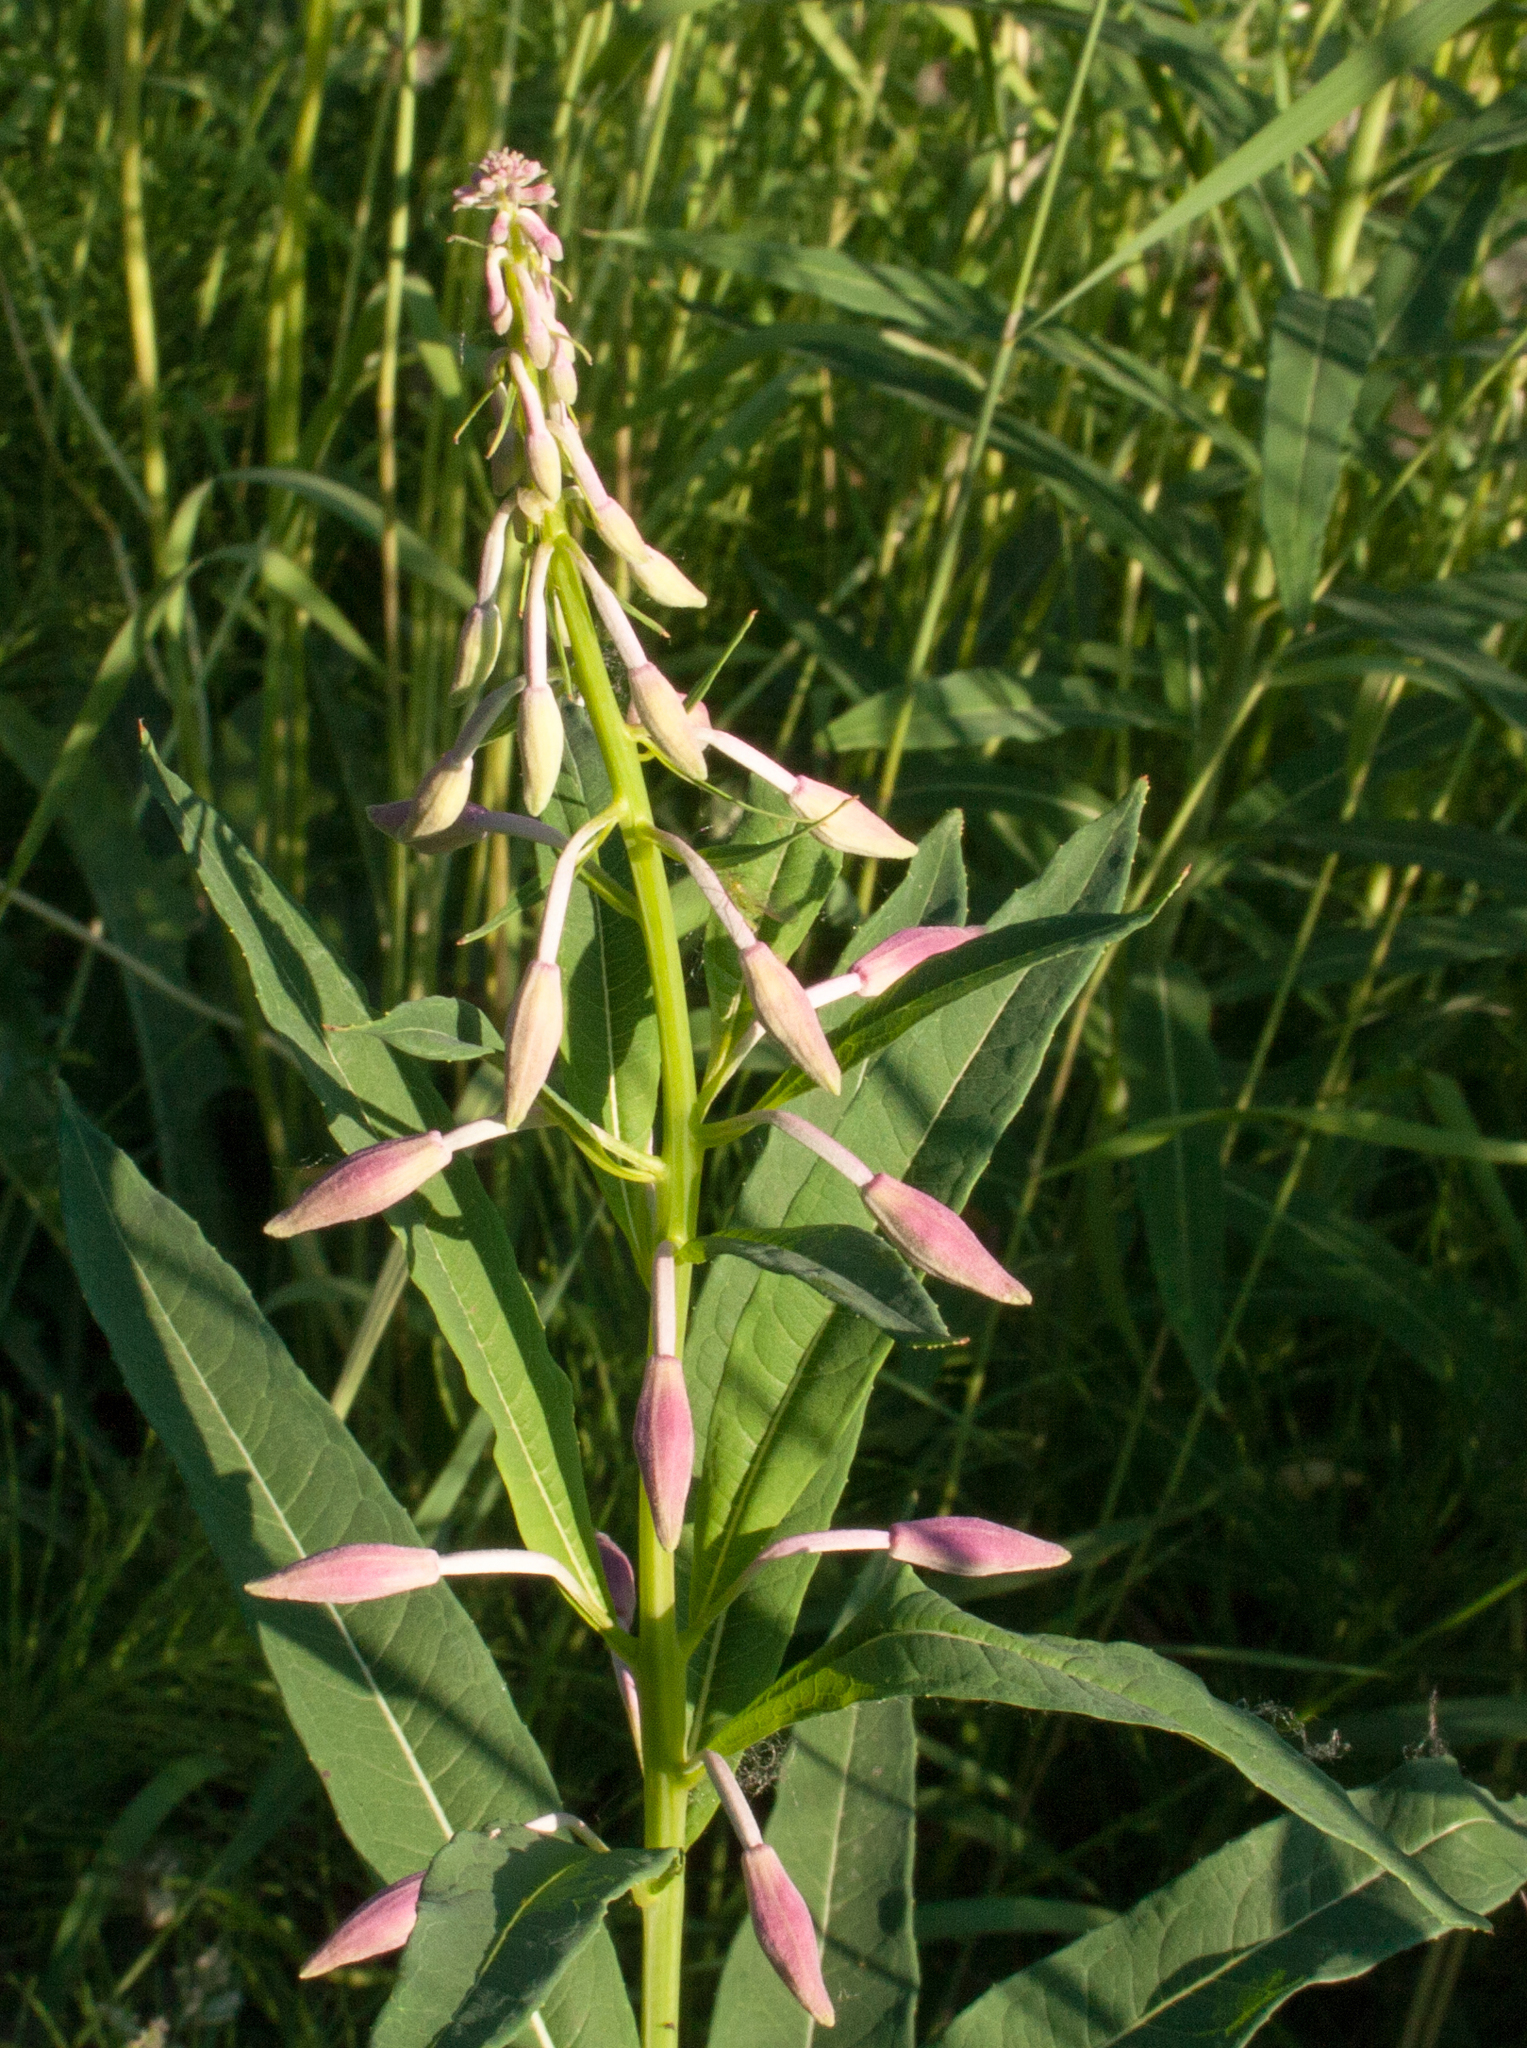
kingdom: Plantae
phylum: Tracheophyta
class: Magnoliopsida
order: Myrtales
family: Onagraceae
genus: Chamaenerion
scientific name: Chamaenerion angustifolium
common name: Fireweed
